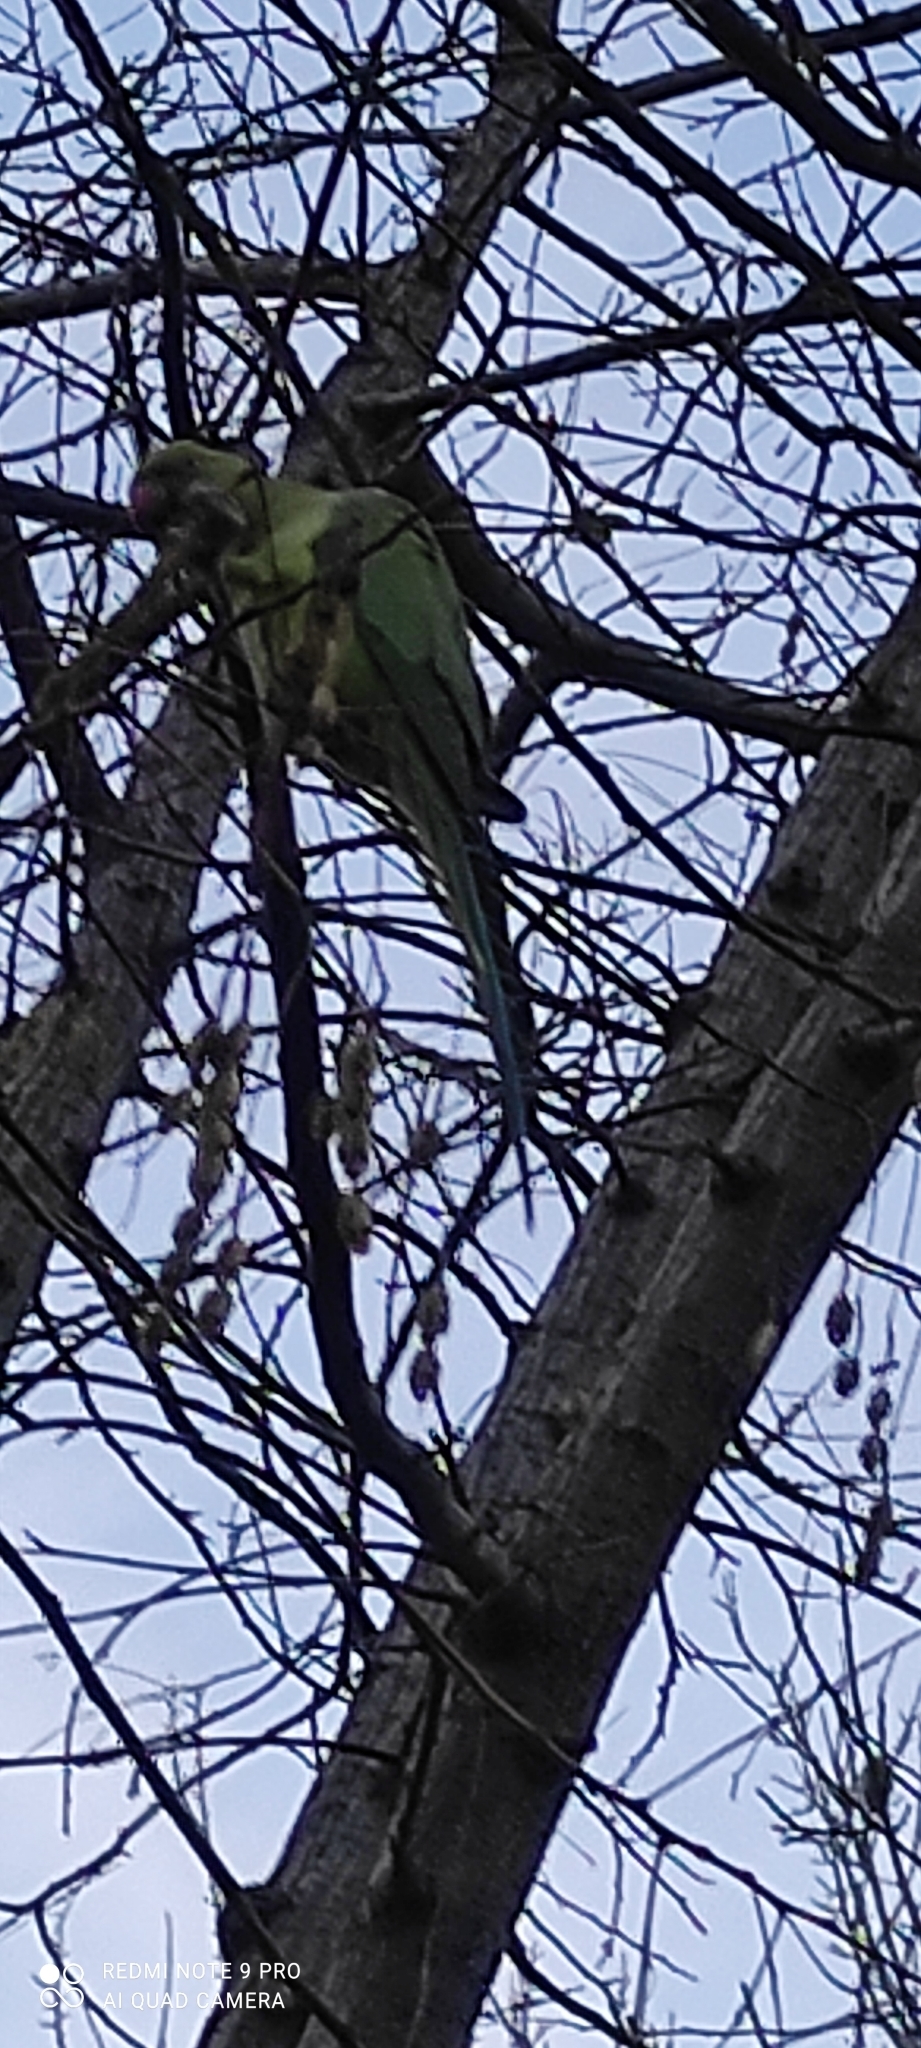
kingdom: Animalia
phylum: Chordata
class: Aves
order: Psittaciformes
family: Psittacidae
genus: Psittacula
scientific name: Psittacula krameri
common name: Rose-ringed parakeet
